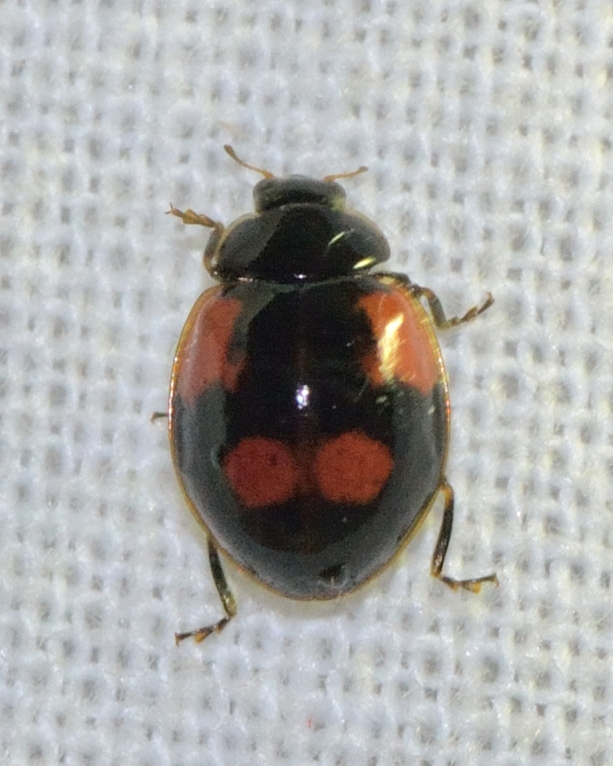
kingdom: Animalia
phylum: Arthropoda
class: Insecta
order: Coleoptera
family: Coccinellidae
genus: Adalia
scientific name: Adalia bipunctata
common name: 2-spot ladybird
